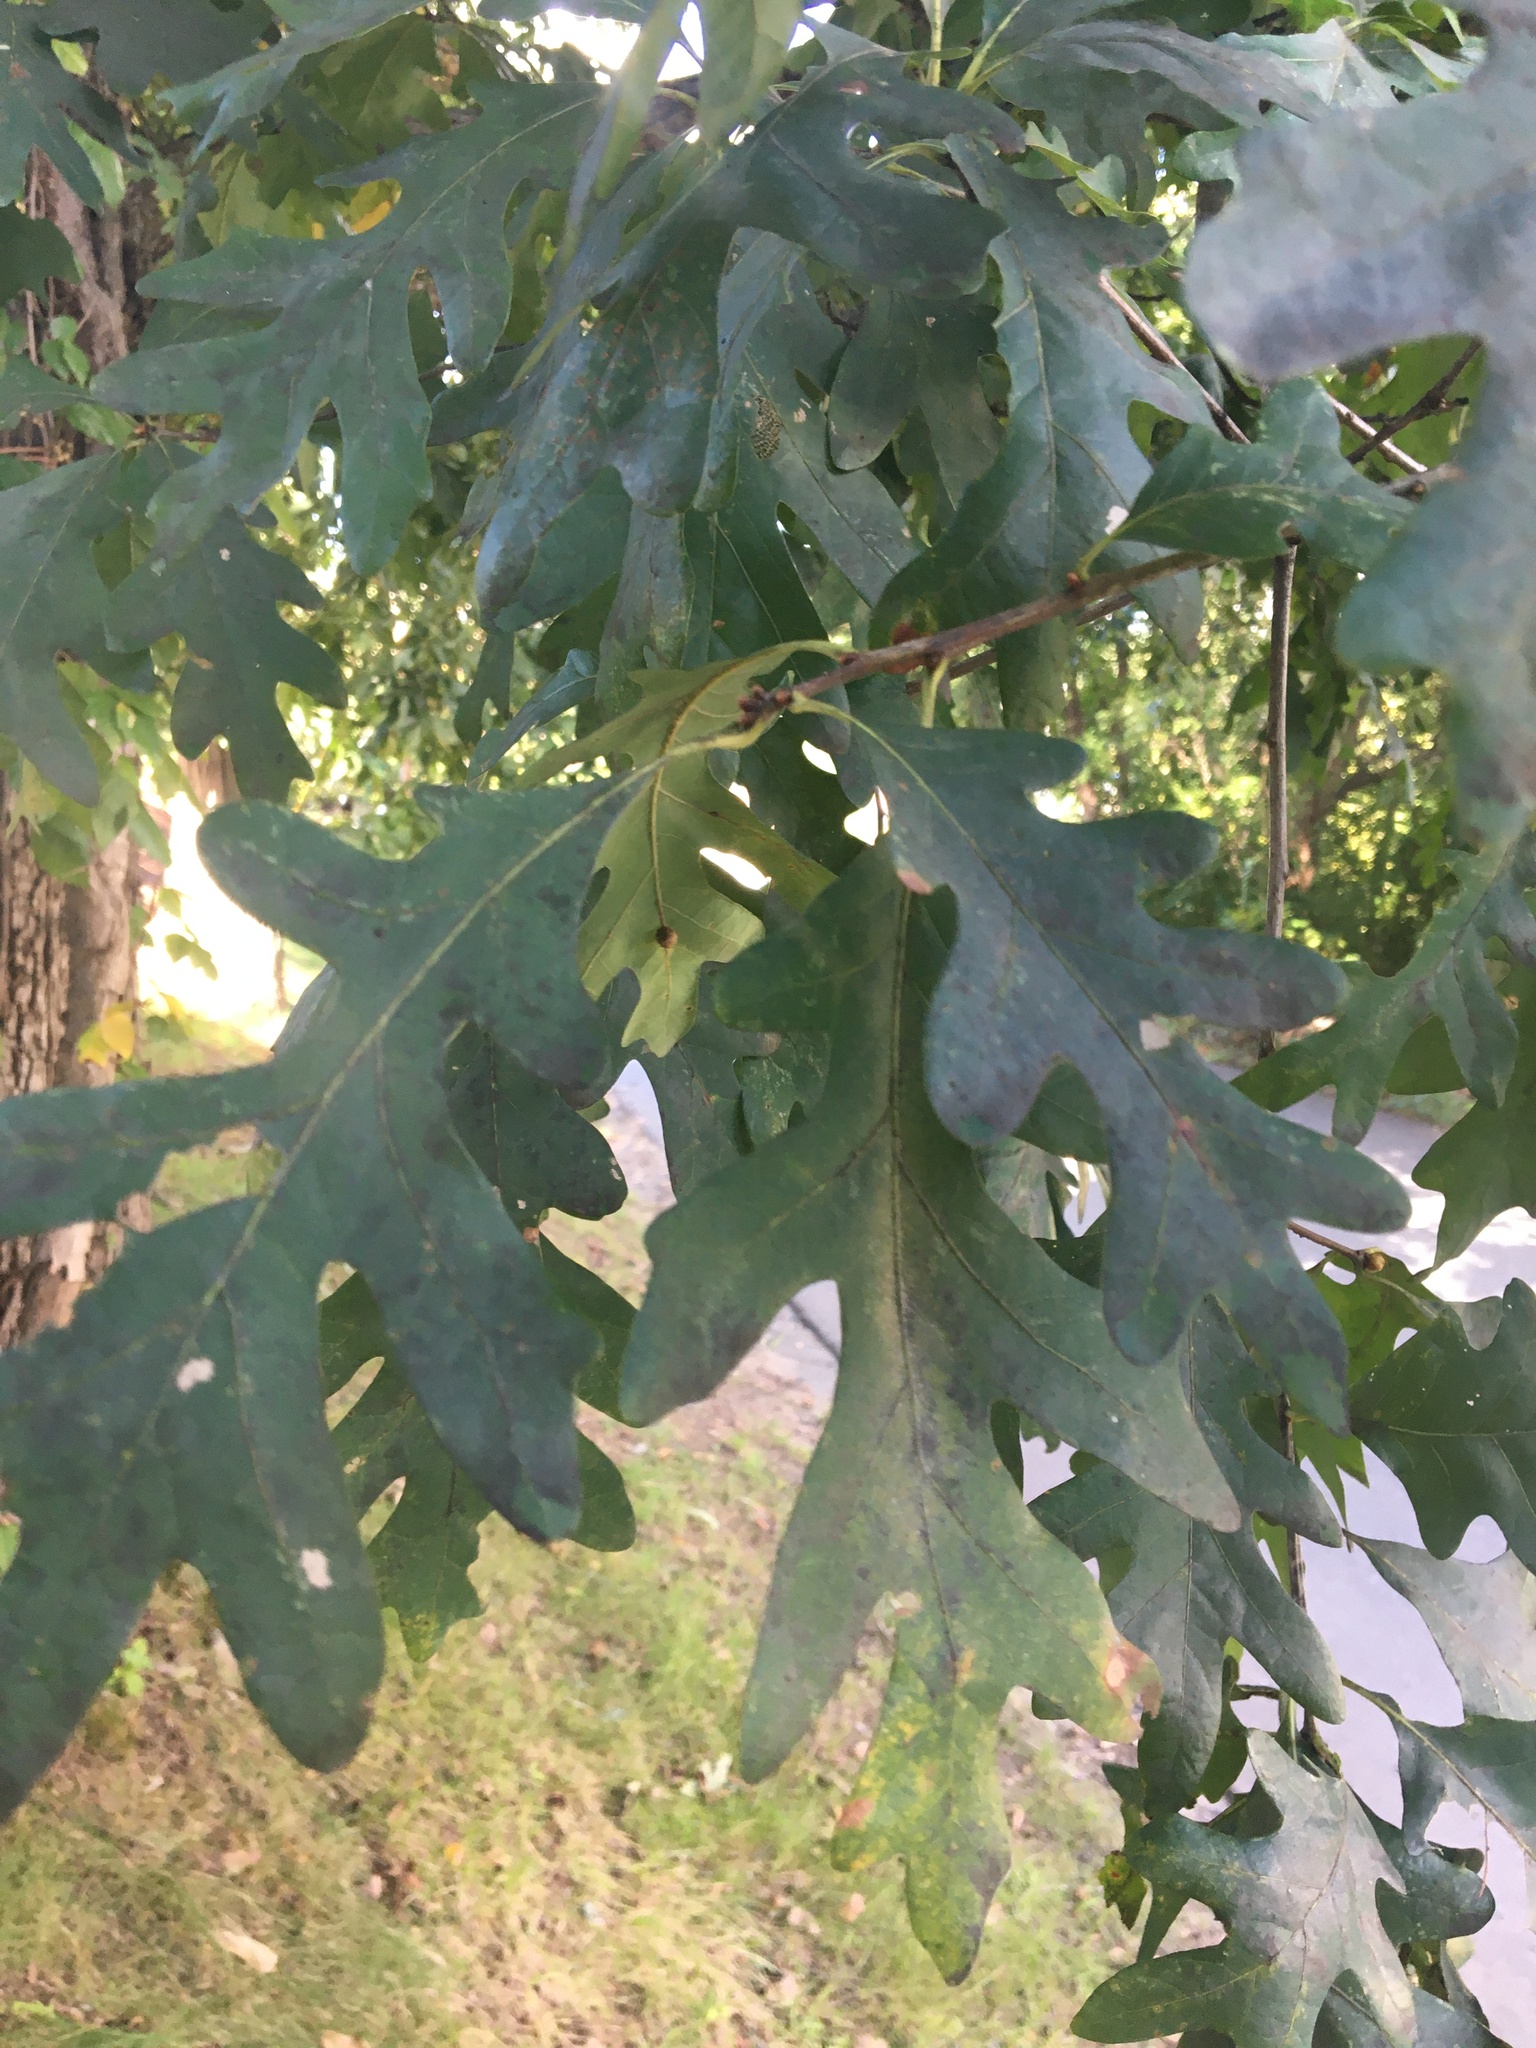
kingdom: Plantae
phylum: Tracheophyta
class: Magnoliopsida
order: Fagales
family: Fagaceae
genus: Quercus
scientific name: Quercus alba
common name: White oak
